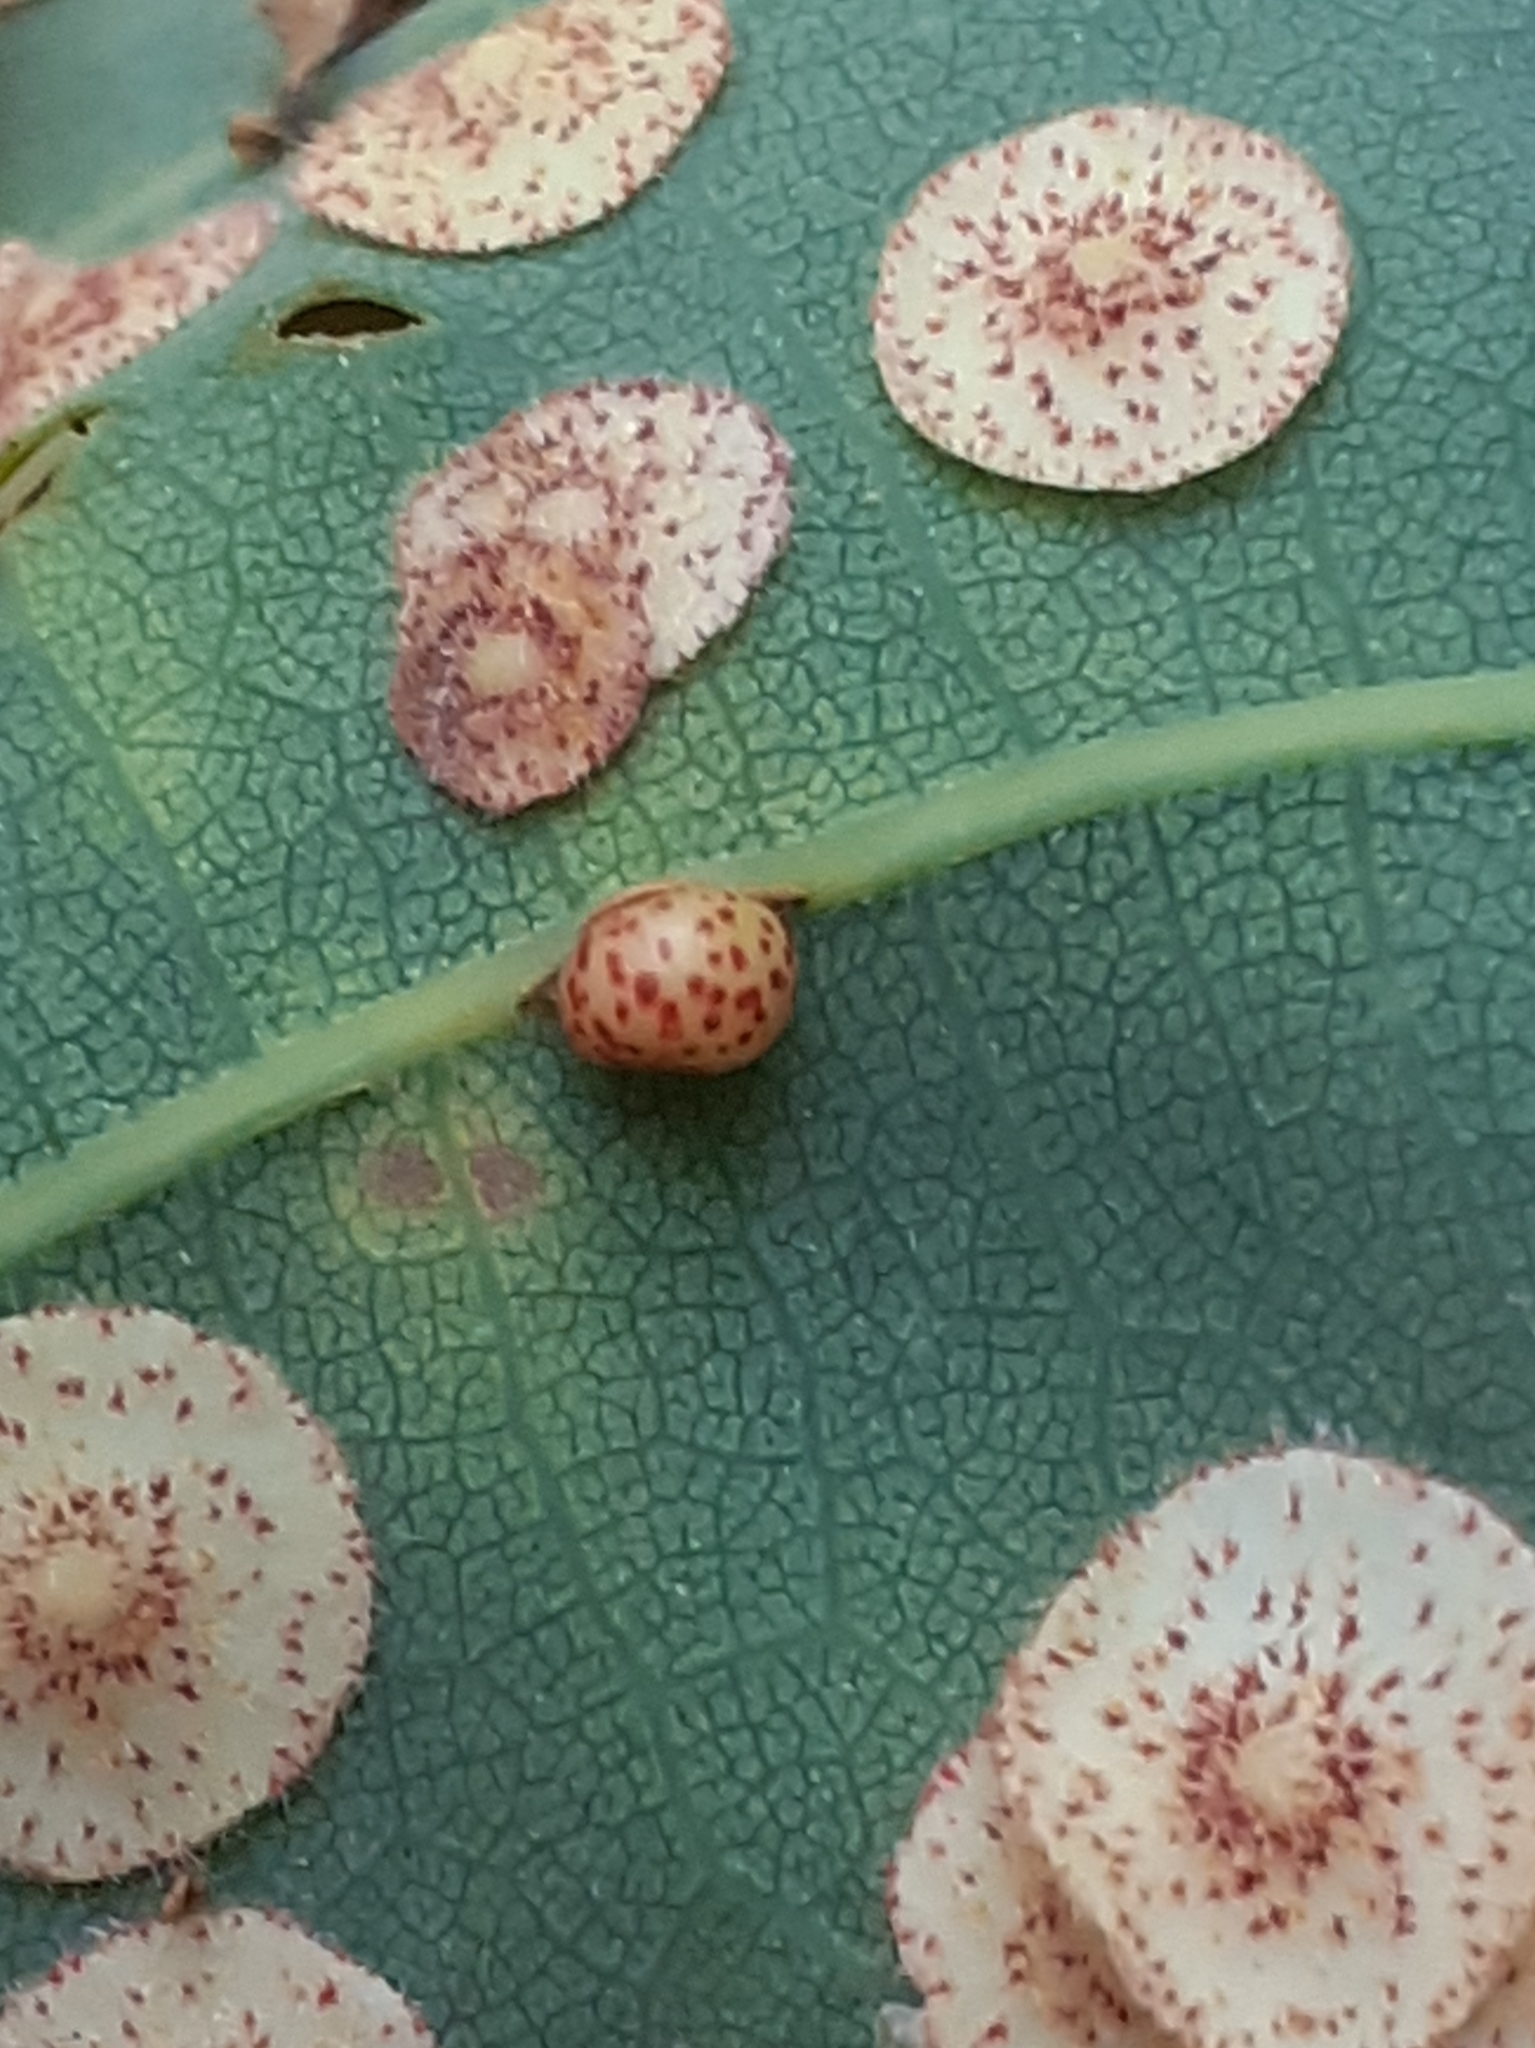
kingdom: Animalia
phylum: Arthropoda
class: Insecta
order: Hymenoptera
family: Cynipidae
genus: Neuroterus
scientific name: Neuroterus anthracinus
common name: Oyster gall
